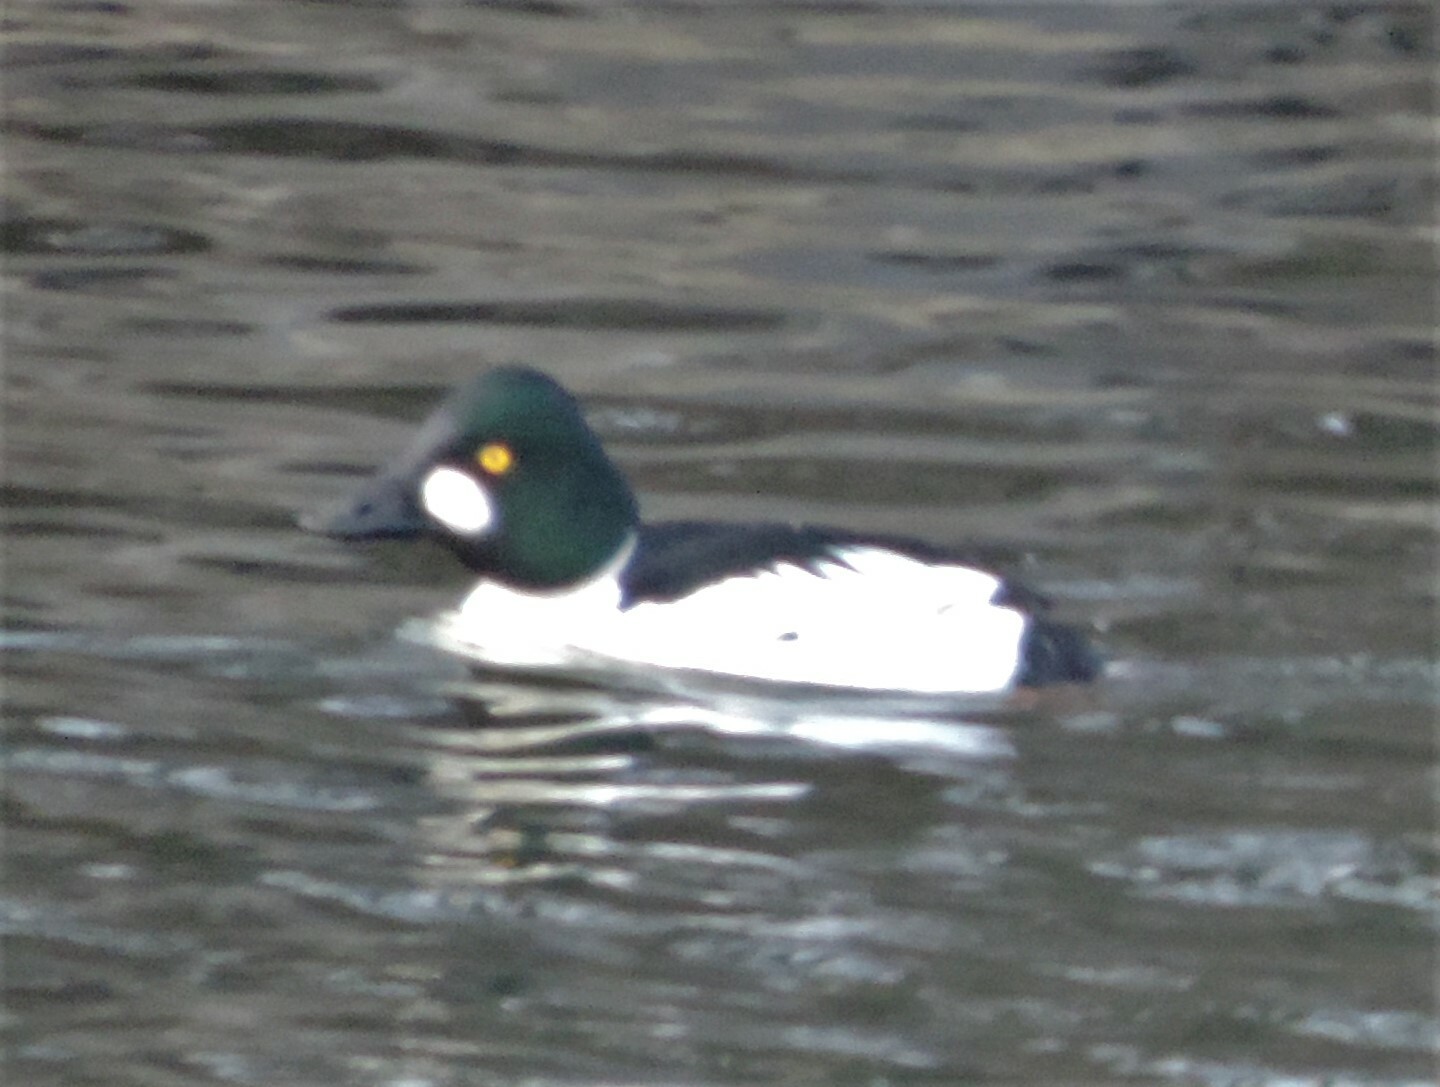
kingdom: Animalia
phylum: Chordata
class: Aves
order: Anseriformes
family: Anatidae
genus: Bucephala
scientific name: Bucephala clangula
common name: Common goldeneye
